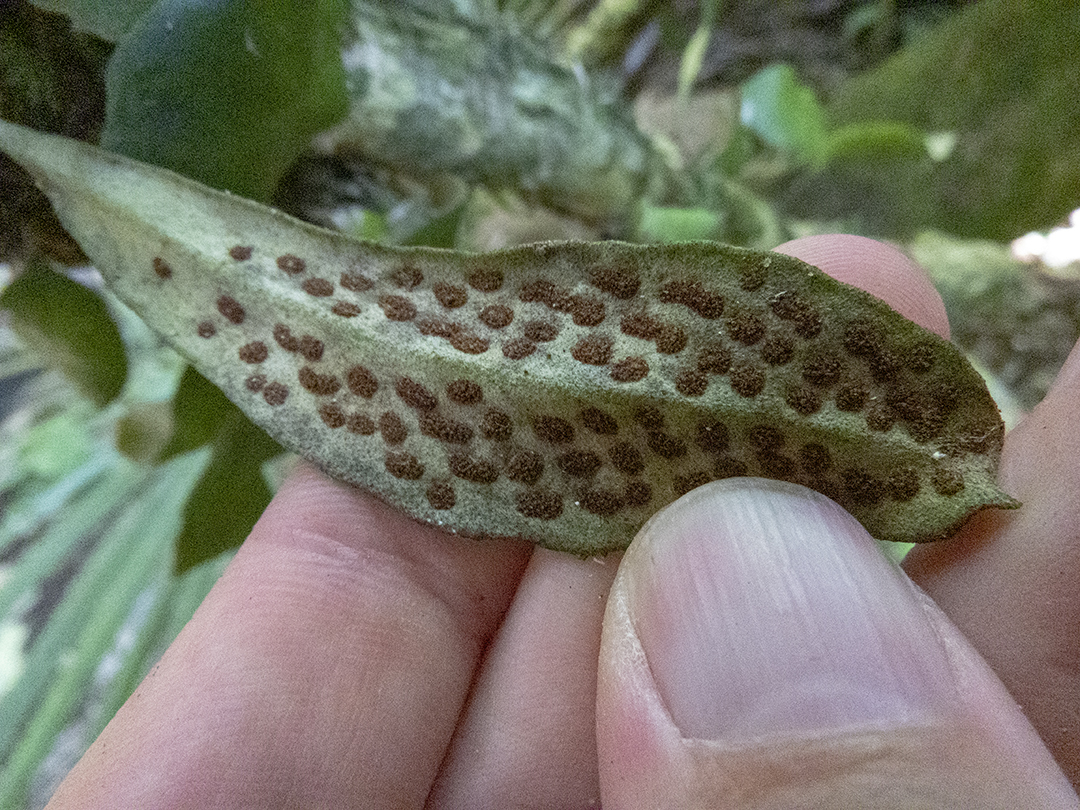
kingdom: Plantae
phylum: Tracheophyta
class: Polypodiopsida
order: Polypodiales
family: Polypodiaceae
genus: Pyrrosia
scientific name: Pyrrosia eleagnifolia
